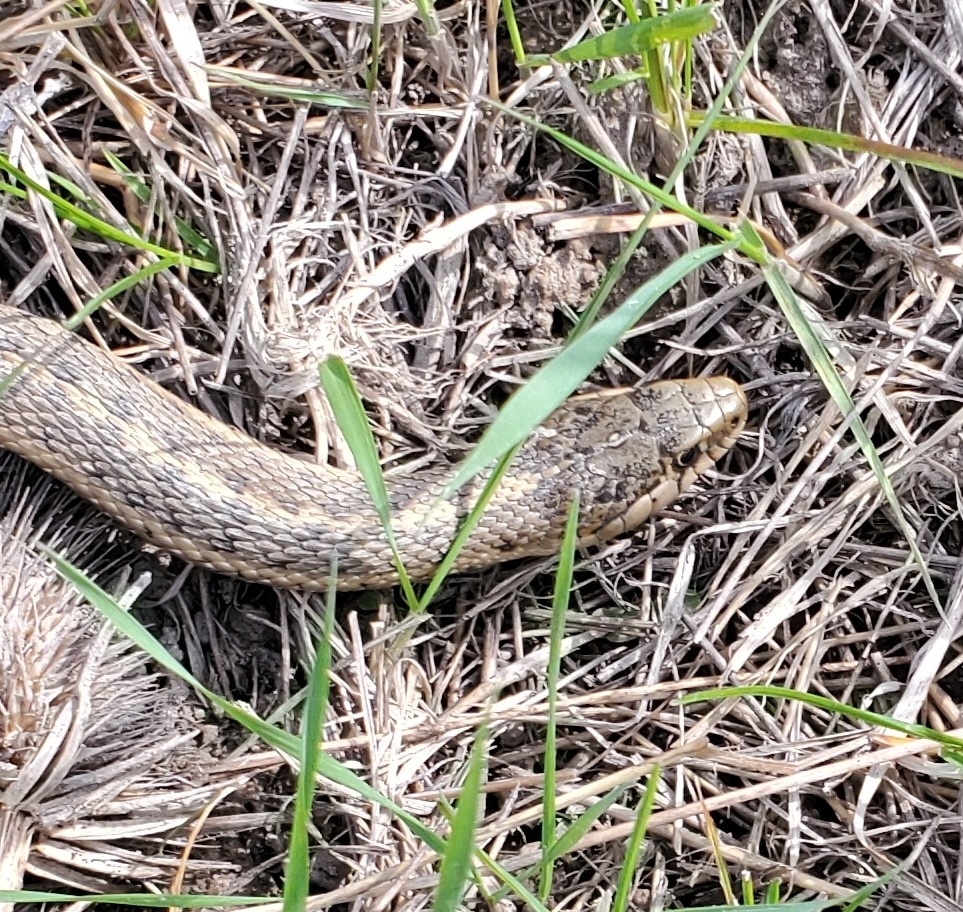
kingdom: Animalia
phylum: Chordata
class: Squamata
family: Colubridae
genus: Thamnophis
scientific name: Thamnophis elegans
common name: Western terrestrial garter snake
